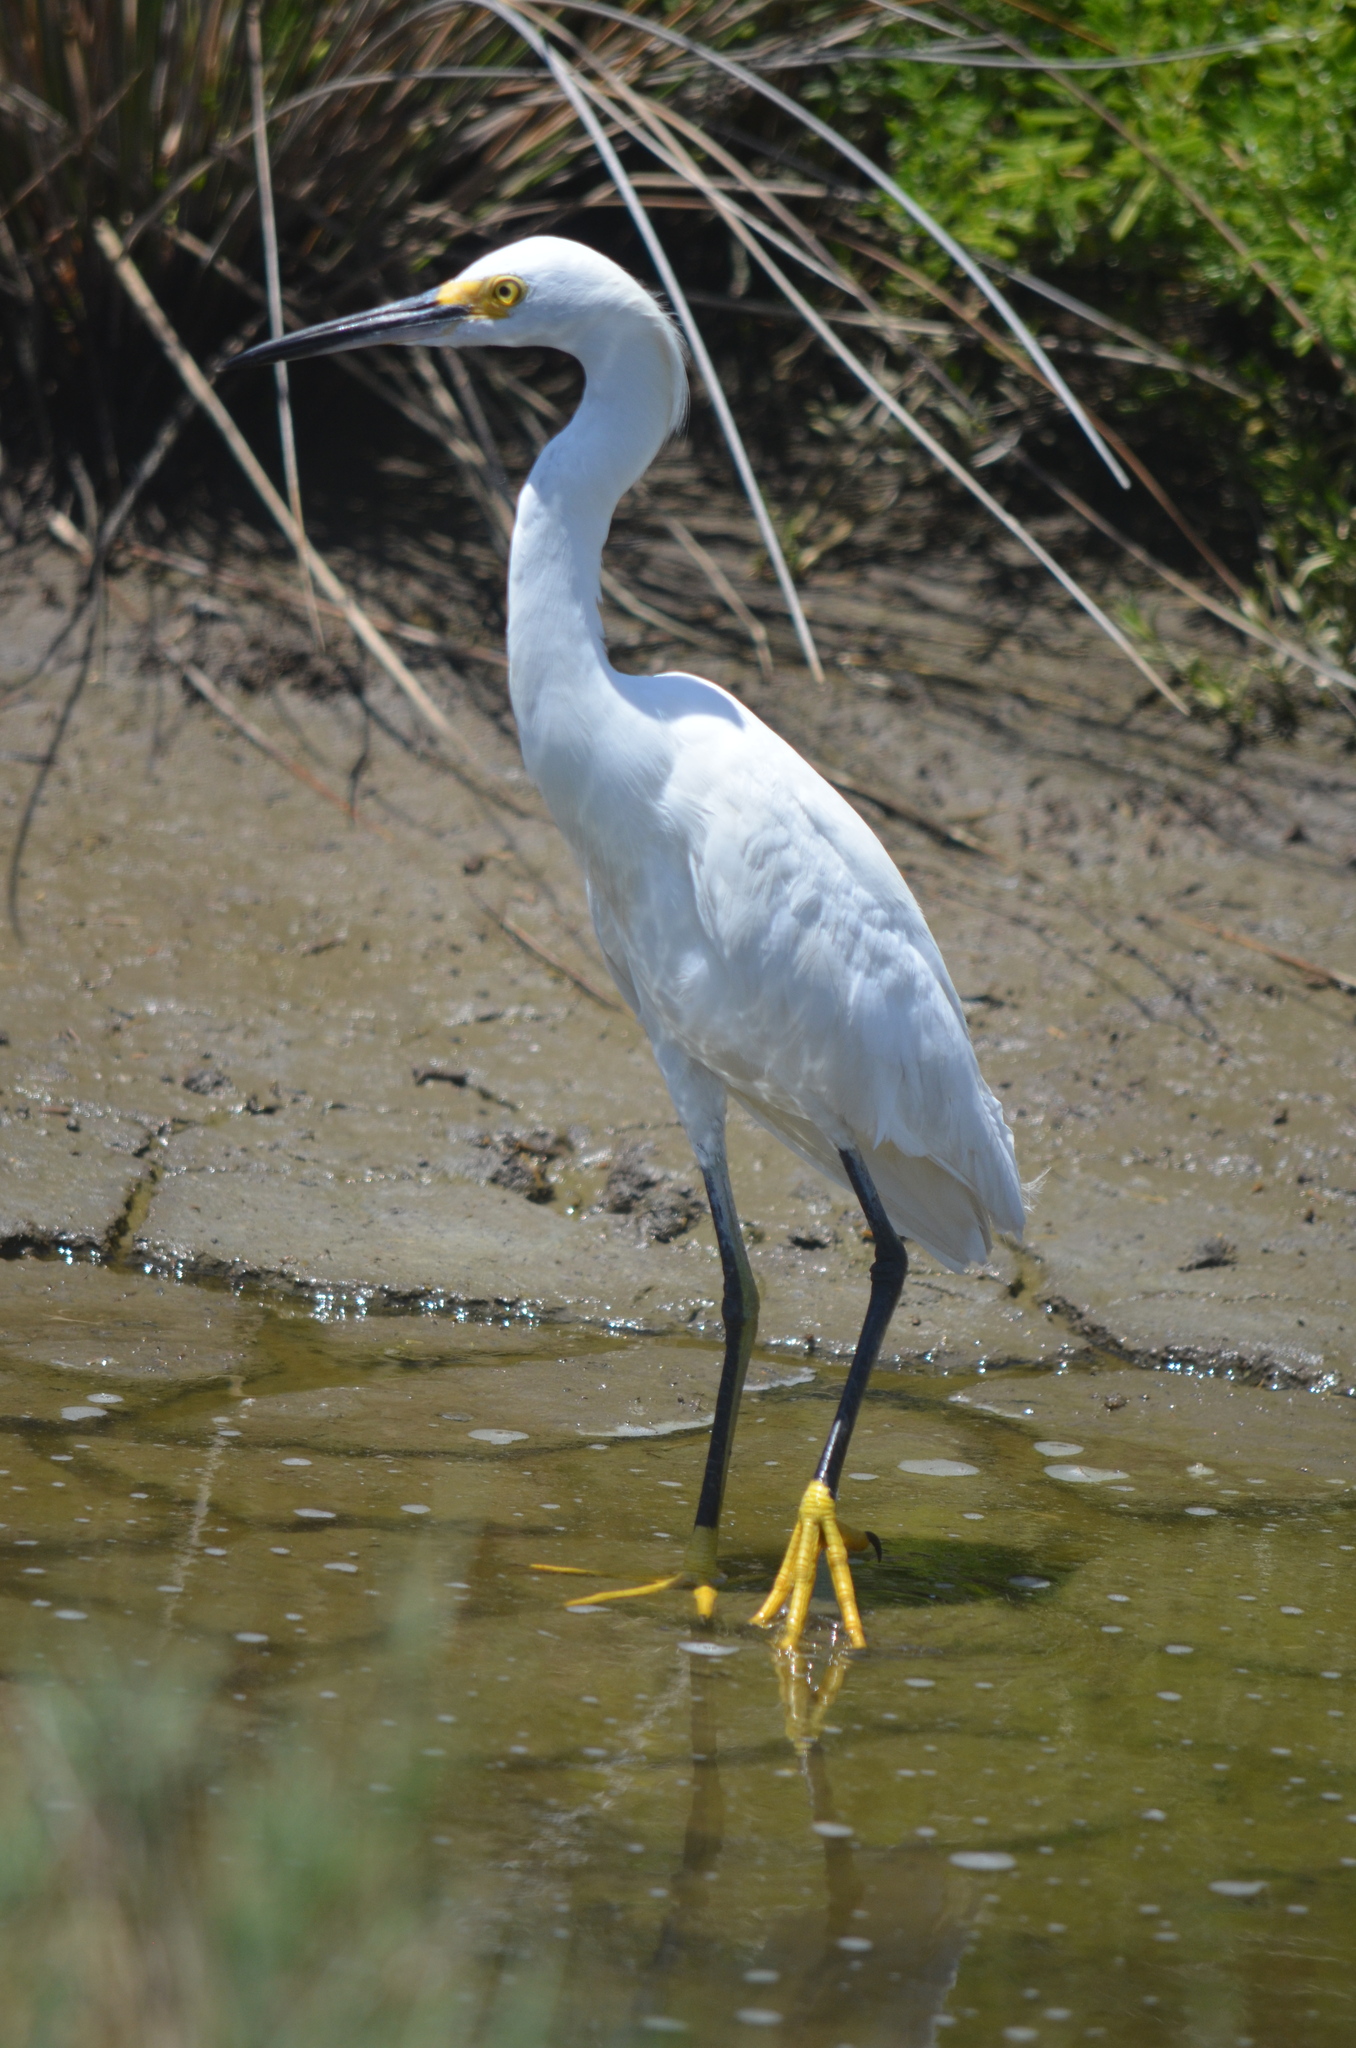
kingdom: Animalia
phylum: Chordata
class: Aves
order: Pelecaniformes
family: Ardeidae
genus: Egretta
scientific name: Egretta thula
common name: Snowy egret
